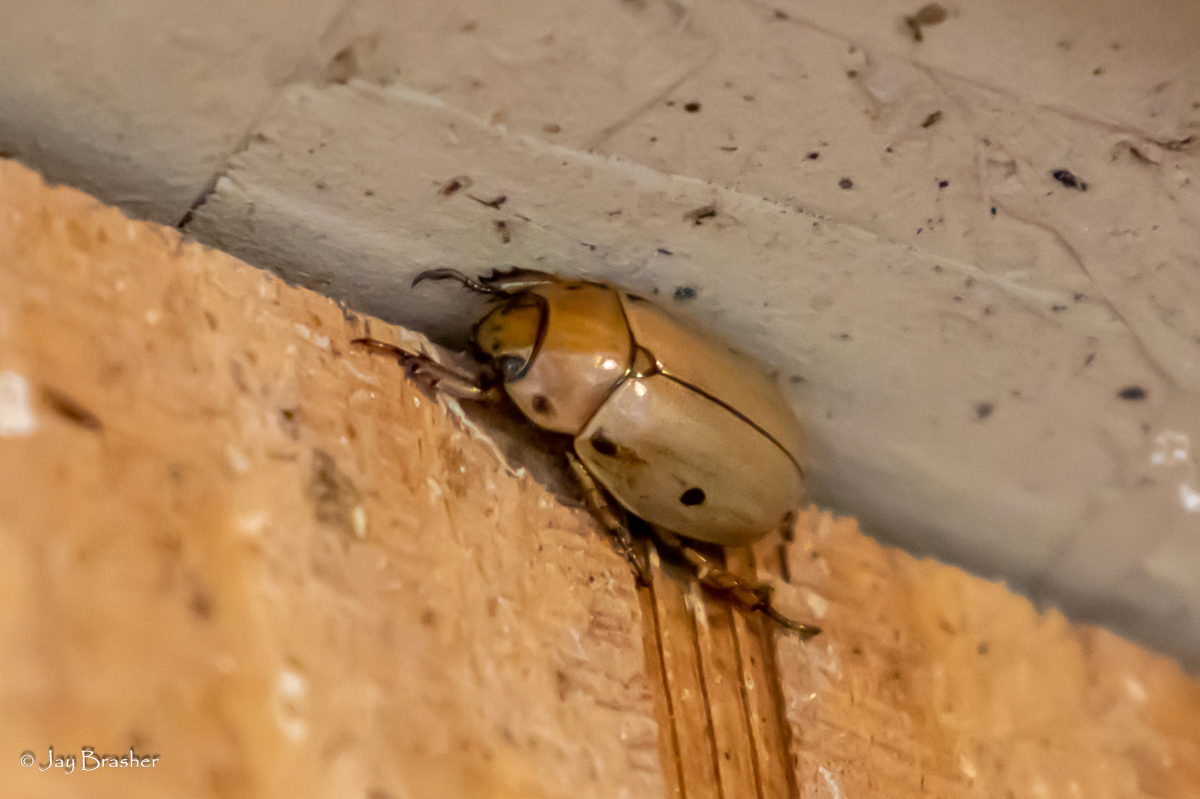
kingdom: Animalia
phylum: Arthropoda
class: Insecta
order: Coleoptera
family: Scarabaeidae
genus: Pelidnota
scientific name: Pelidnota punctata
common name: Grapevine beetle
